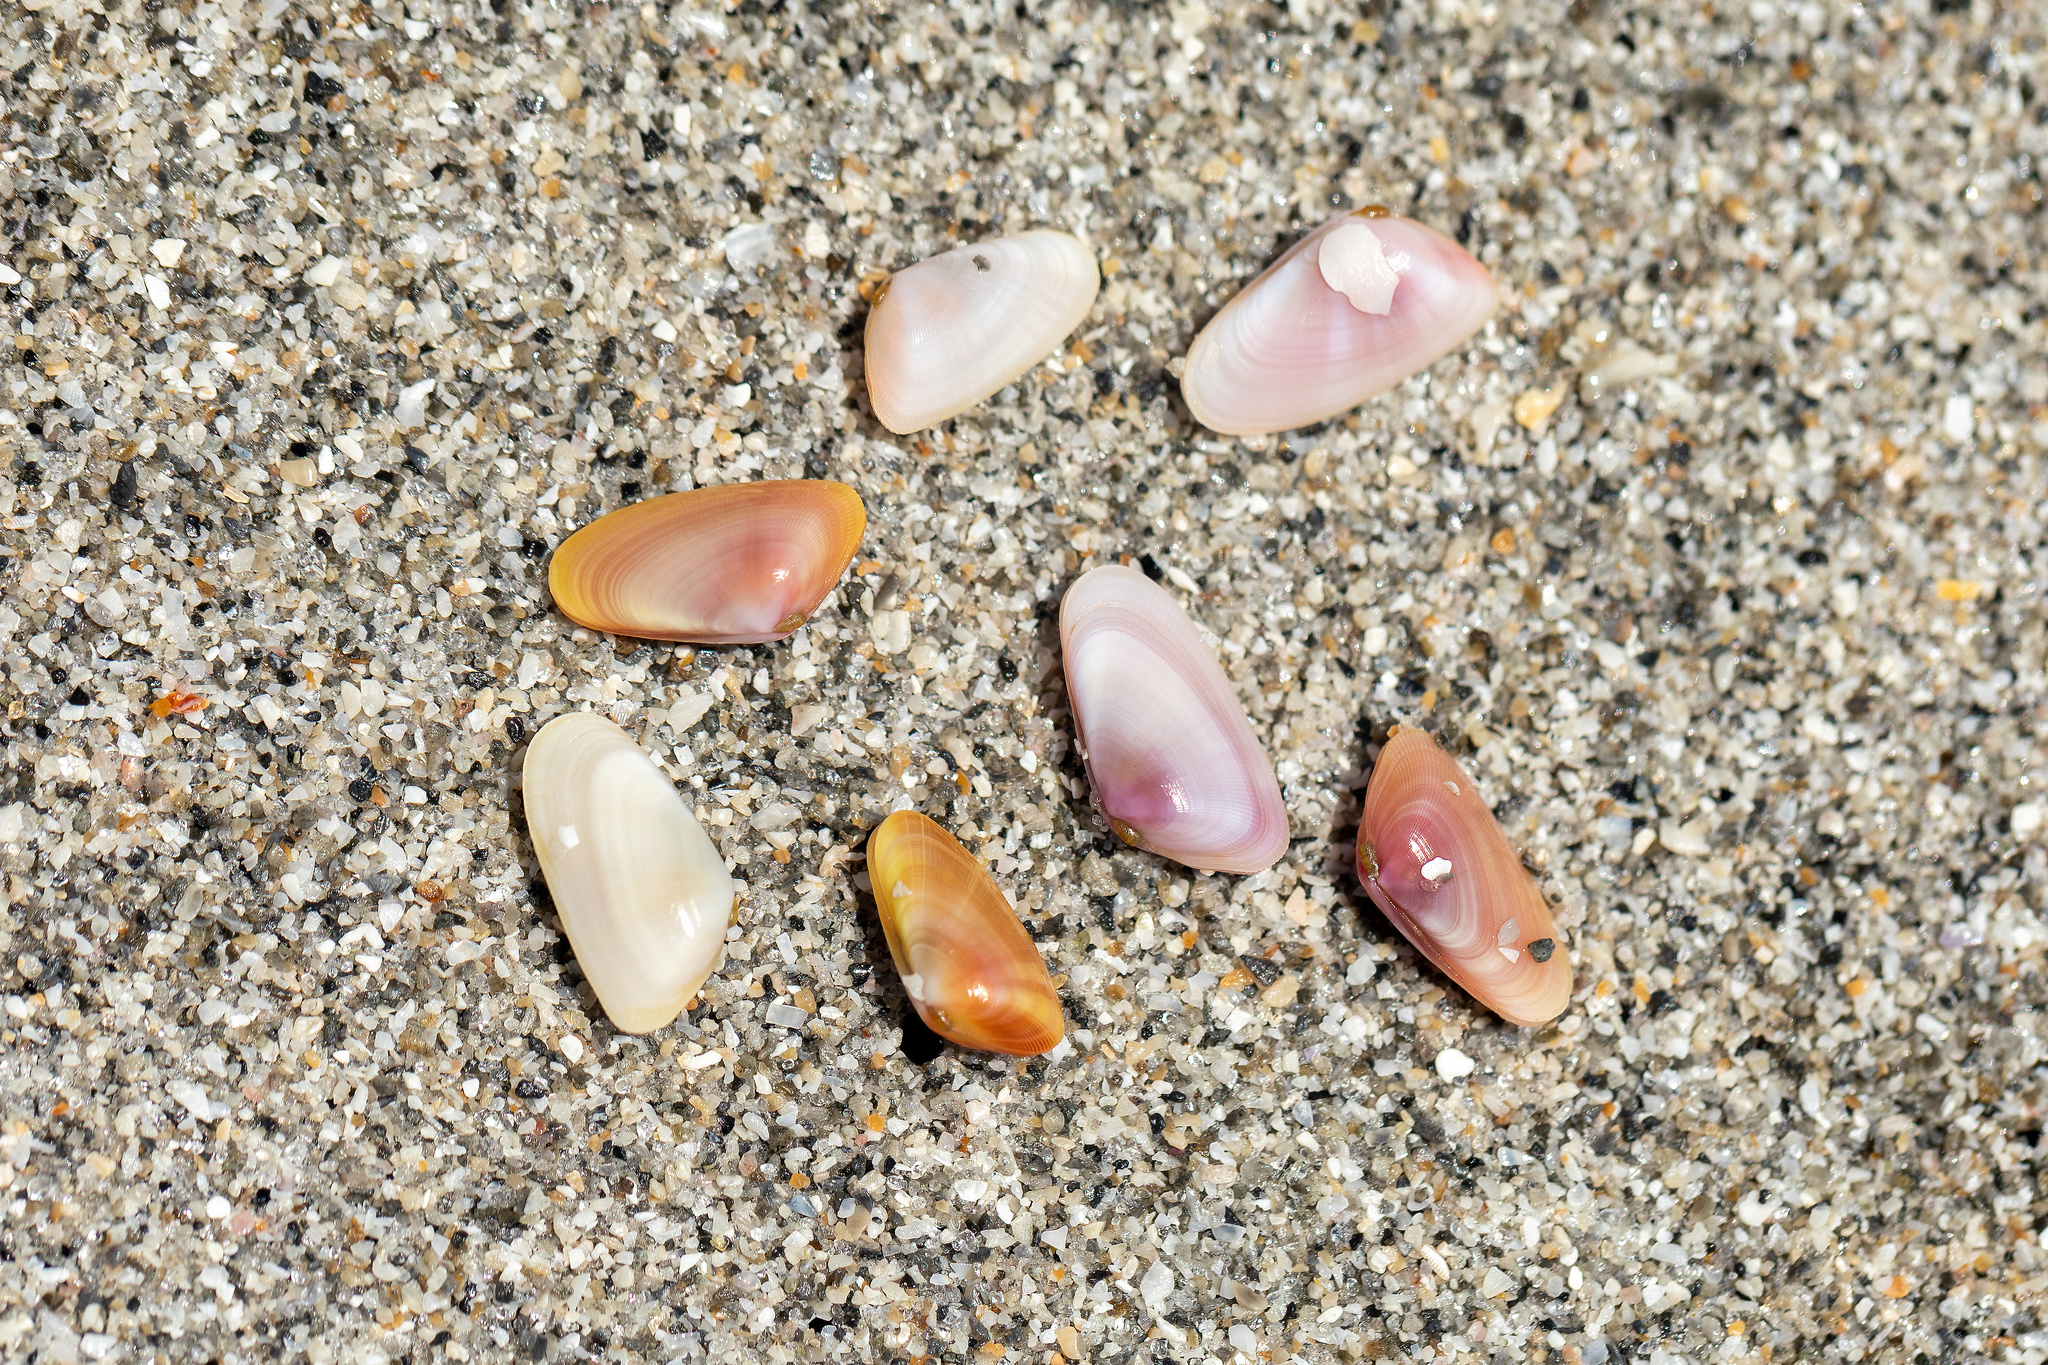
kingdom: Animalia
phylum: Mollusca
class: Bivalvia
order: Cardiida
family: Donacidae
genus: Donax
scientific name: Donax variabilis
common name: Butterfly shell
